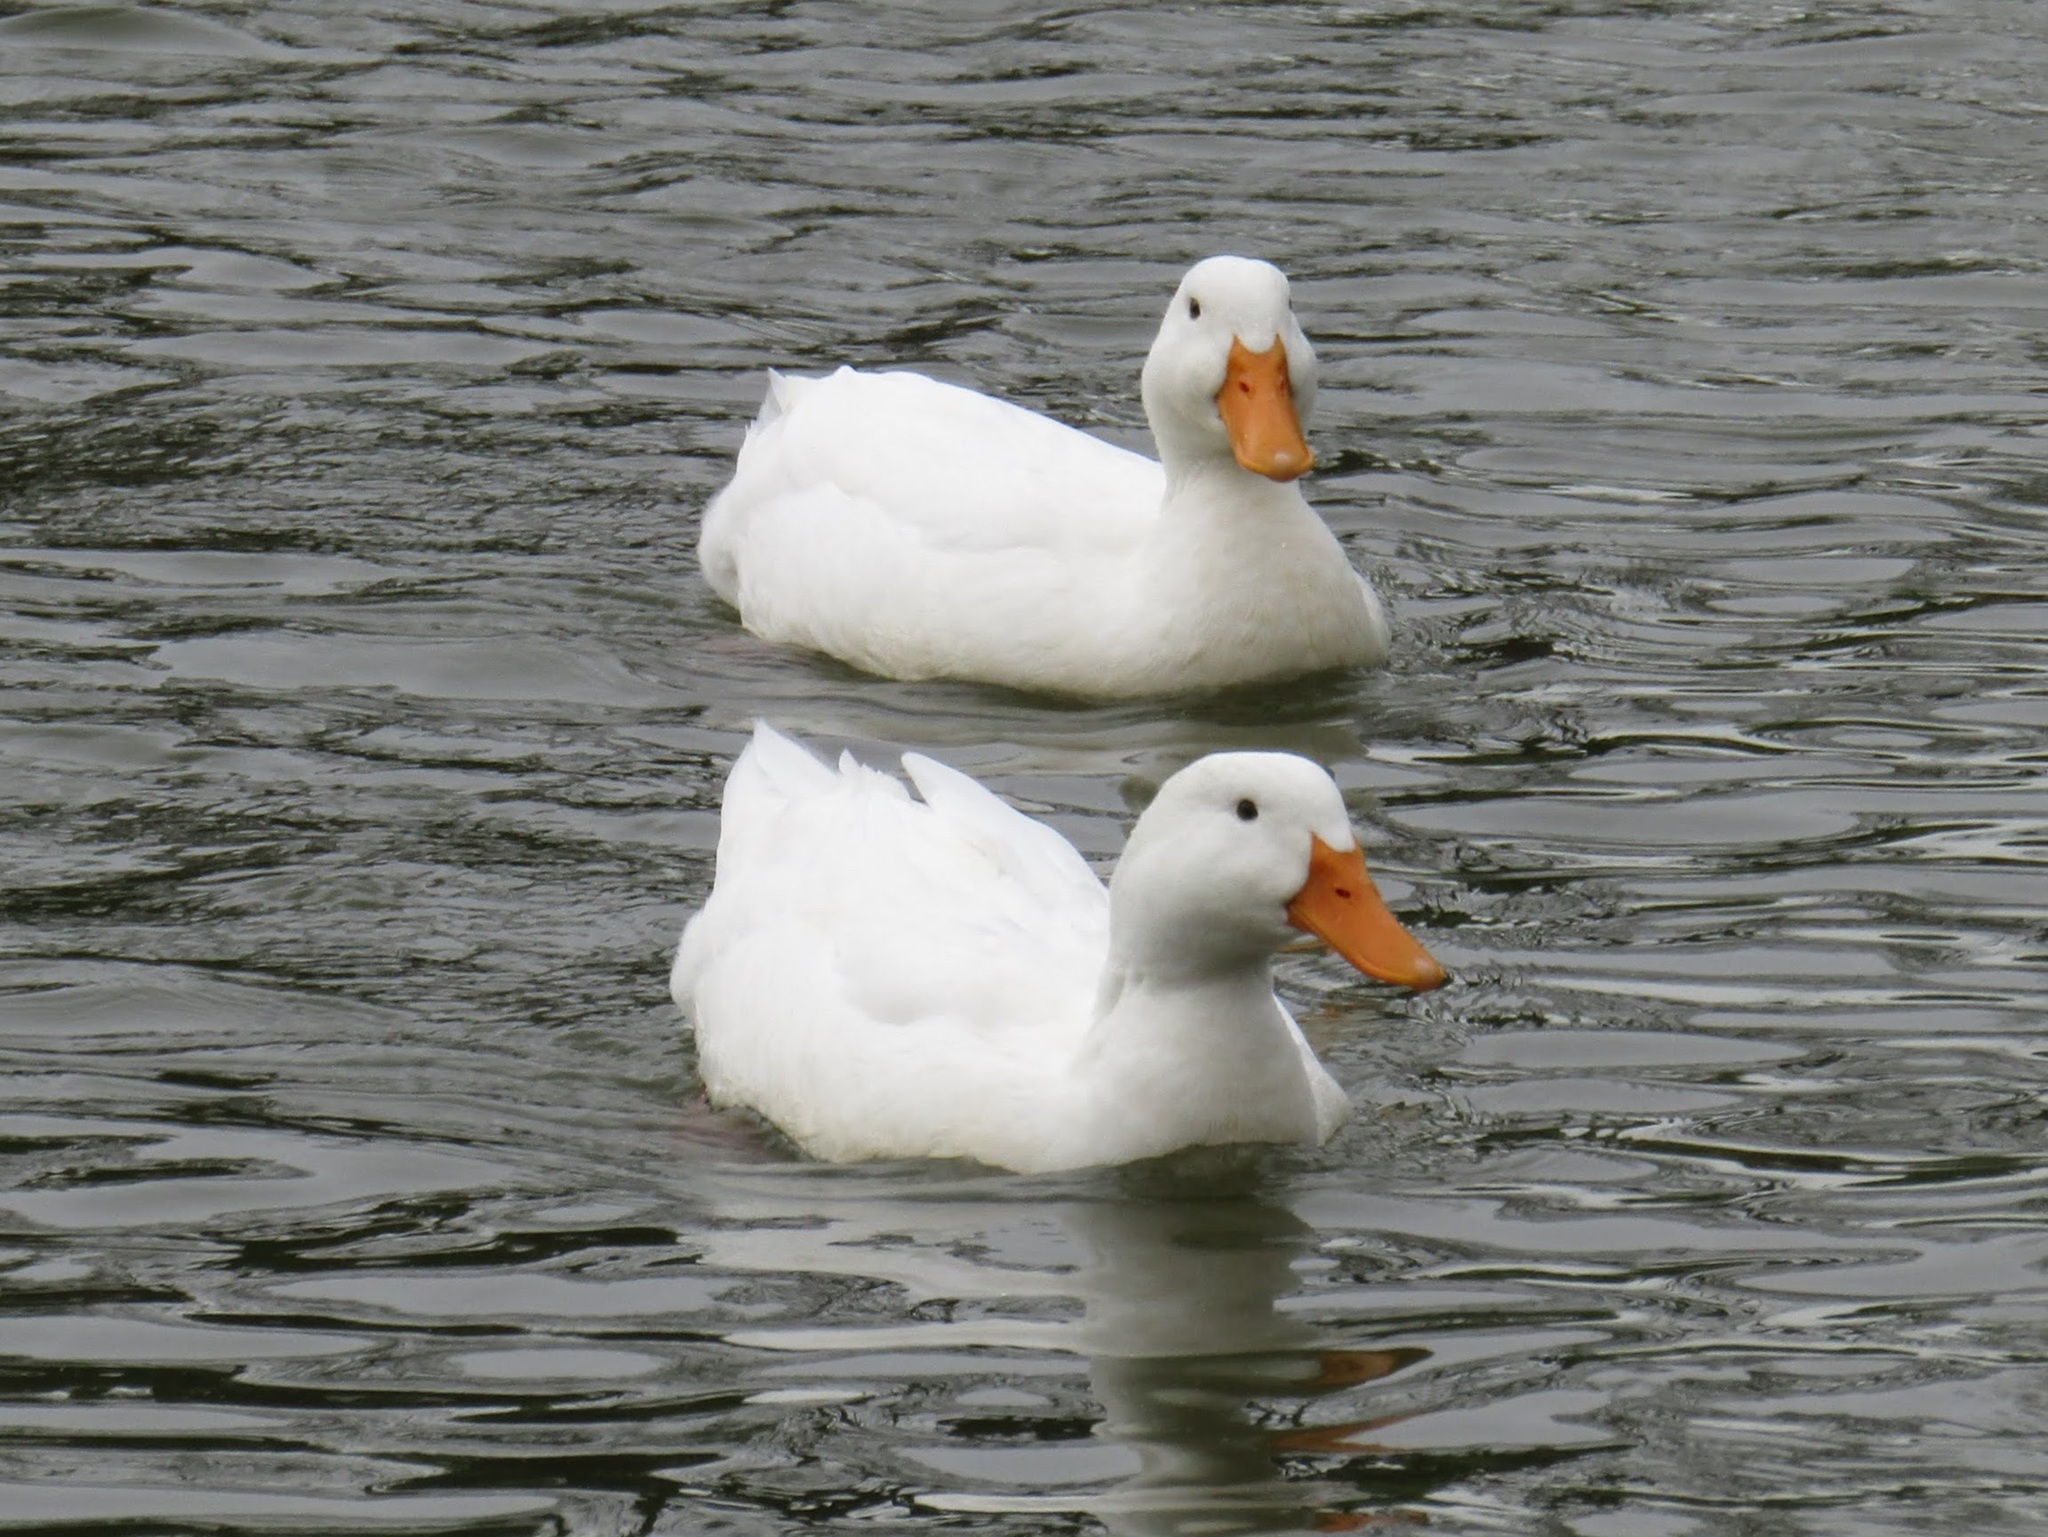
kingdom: Animalia
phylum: Chordata
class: Aves
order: Anseriformes
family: Anatidae
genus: Anas
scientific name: Anas platyrhynchos
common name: Mallard
